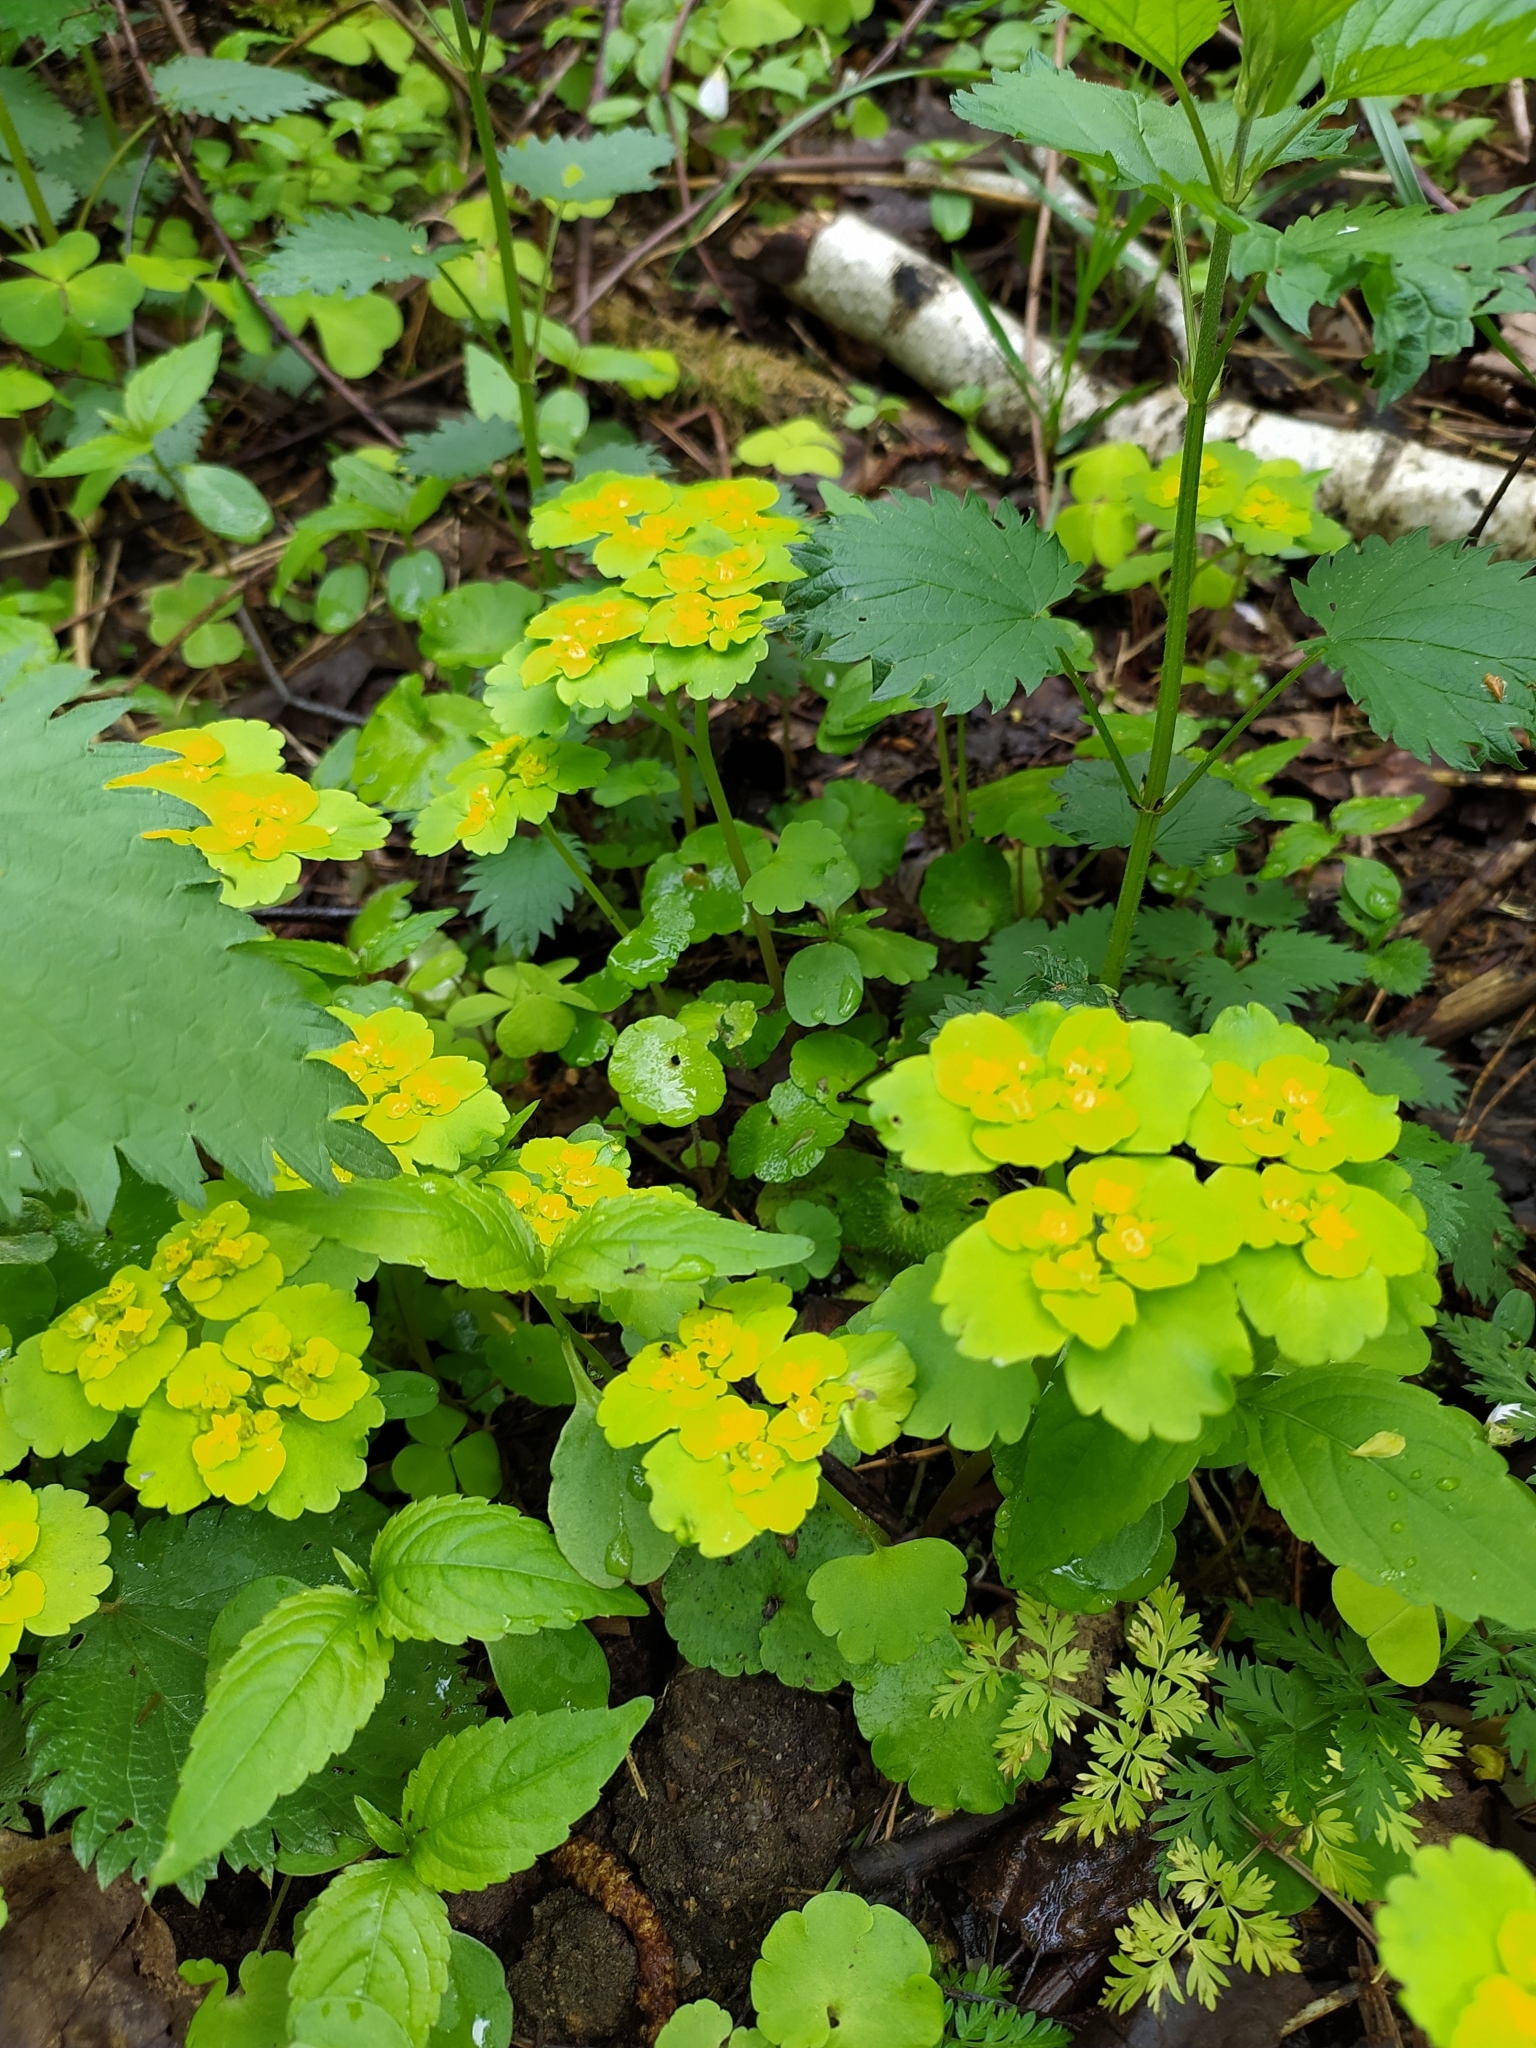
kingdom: Plantae
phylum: Tracheophyta
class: Magnoliopsida
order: Saxifragales
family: Saxifragaceae
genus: Chrysosplenium
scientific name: Chrysosplenium alternifolium
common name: Alternate-leaved golden-saxifrage
